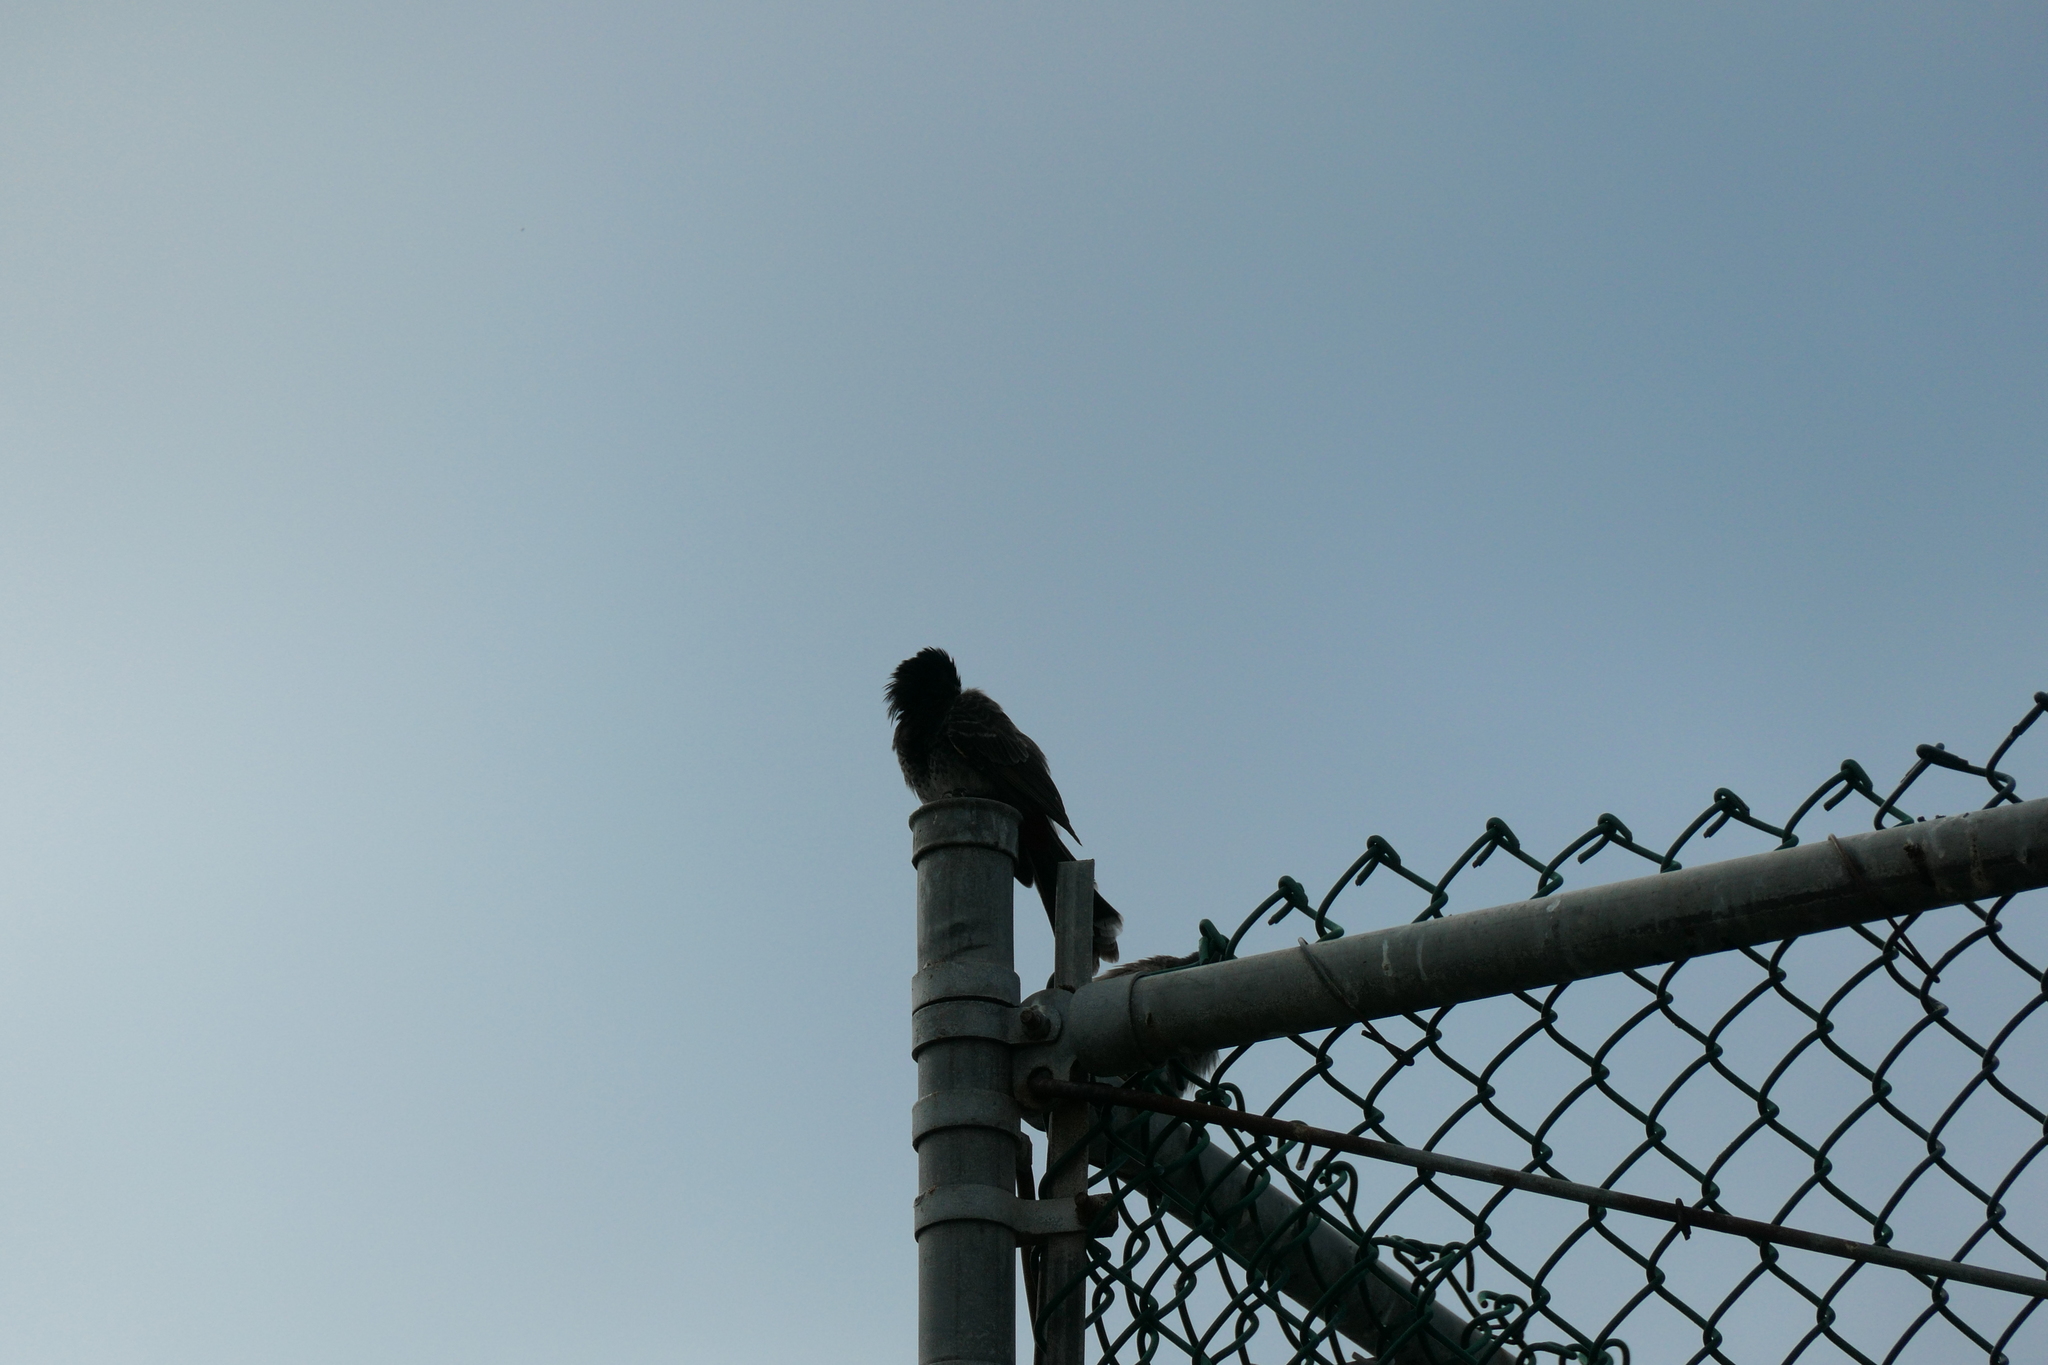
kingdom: Animalia
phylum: Chordata
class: Aves
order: Passeriformes
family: Pycnonotidae
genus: Pycnonotus
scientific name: Pycnonotus cafer
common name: Red-vented bulbul
